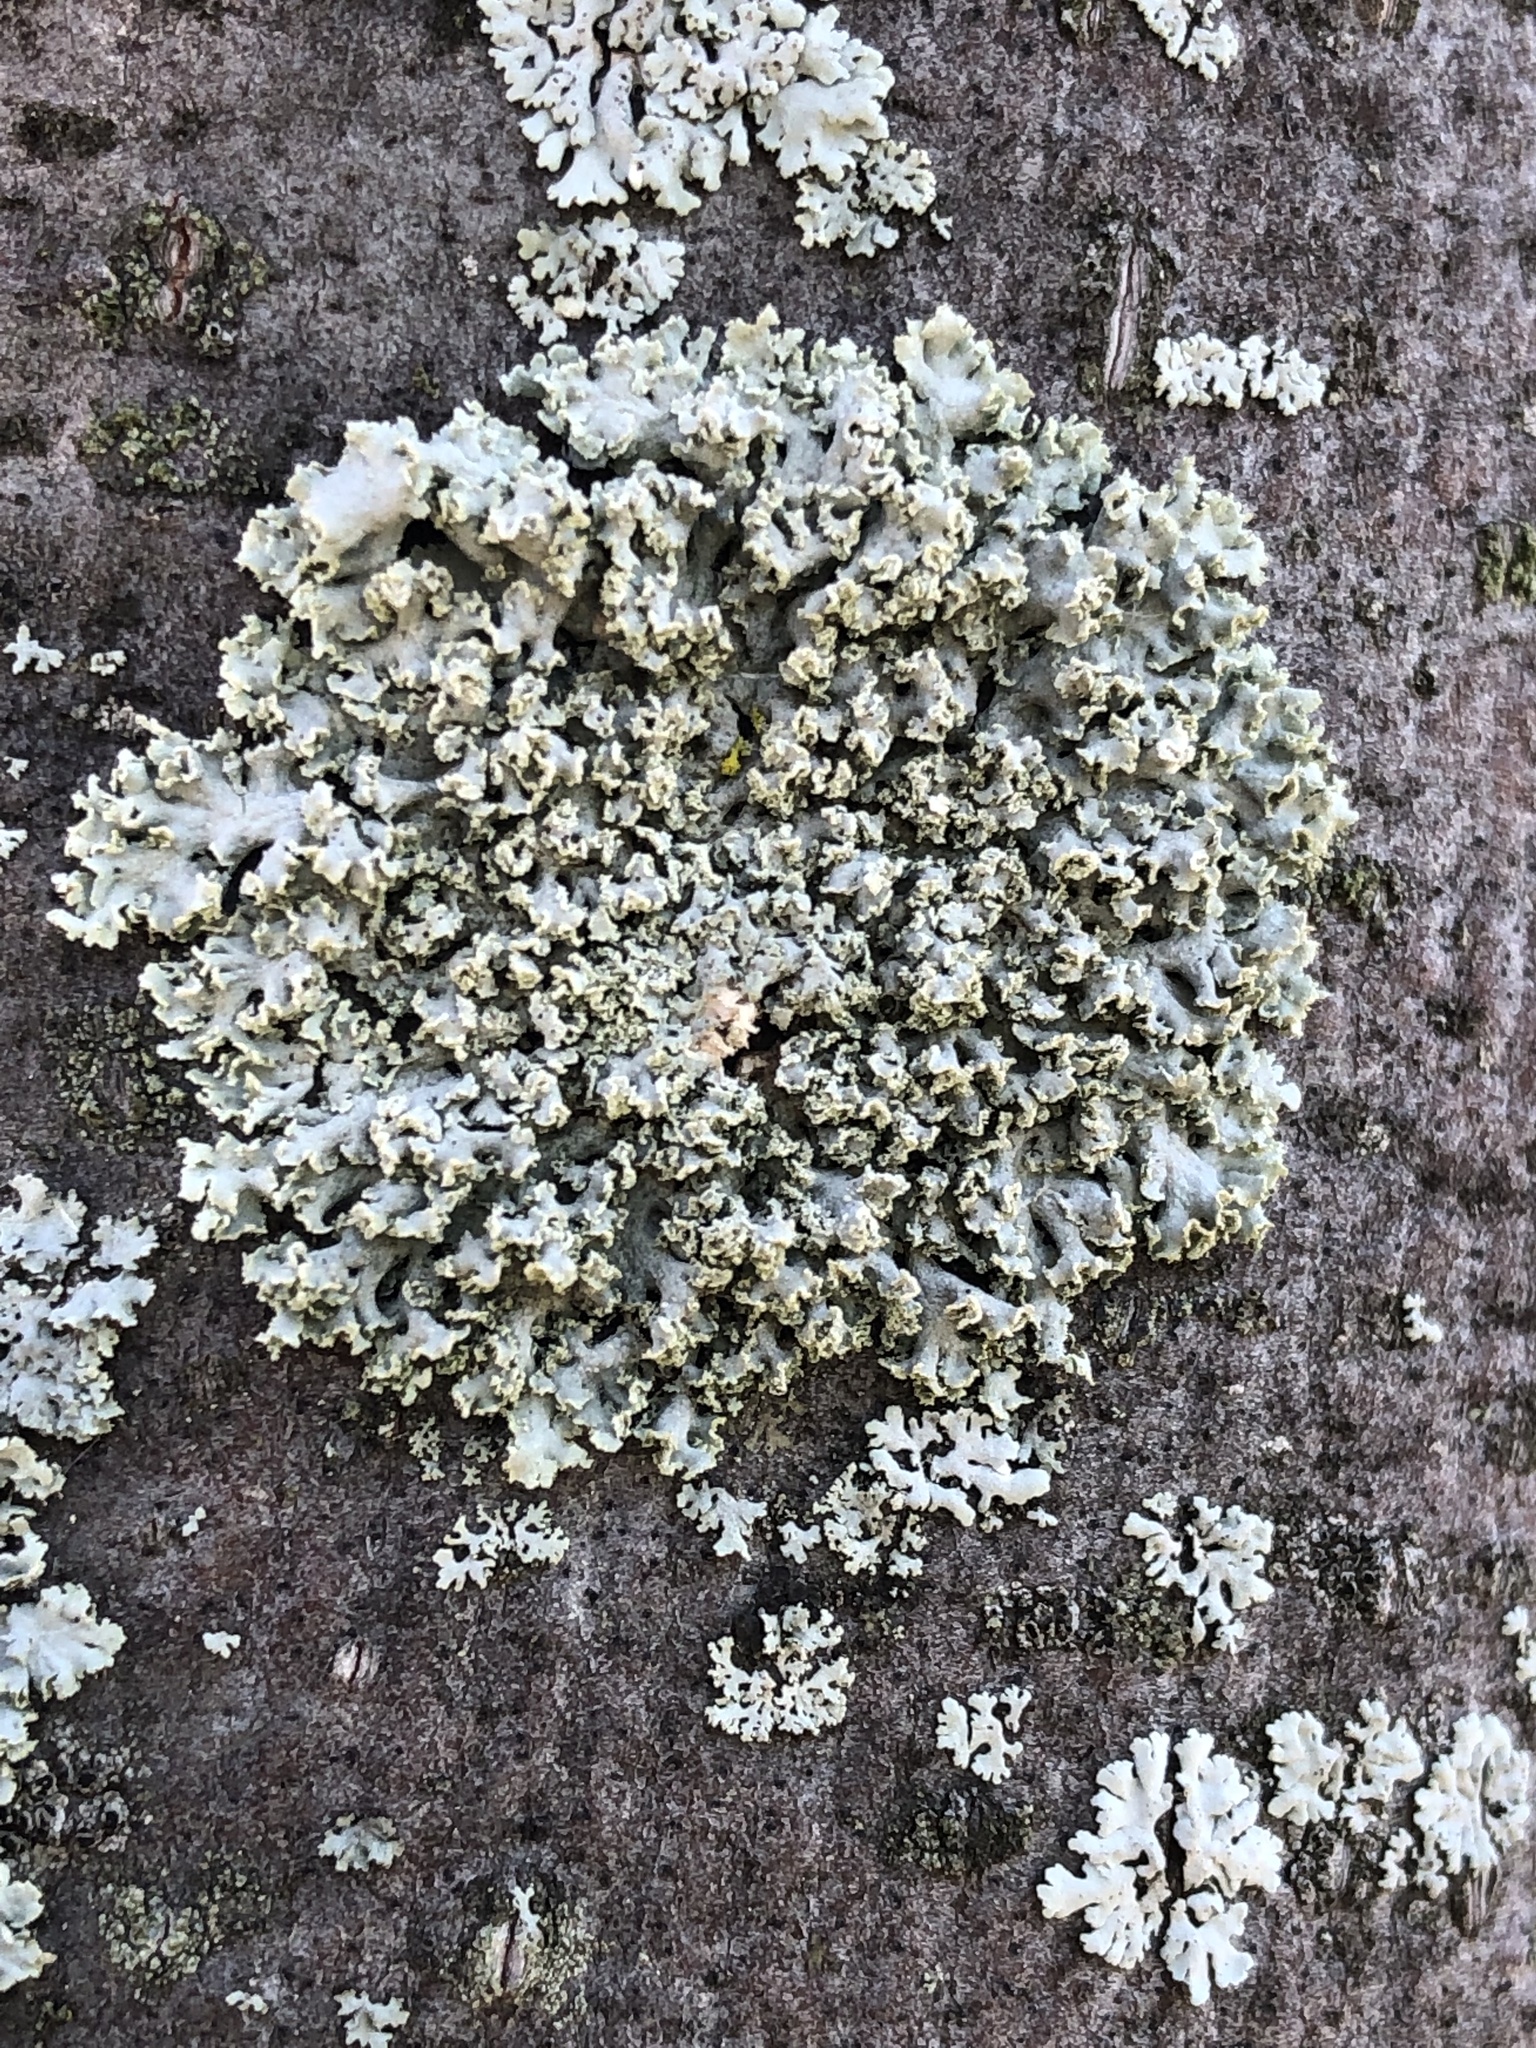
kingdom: Fungi
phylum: Ascomycota
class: Lecanoromycetes
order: Caliciales
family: Physciaceae
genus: Physcia
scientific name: Physcia millegrana
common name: Rosette lichen
